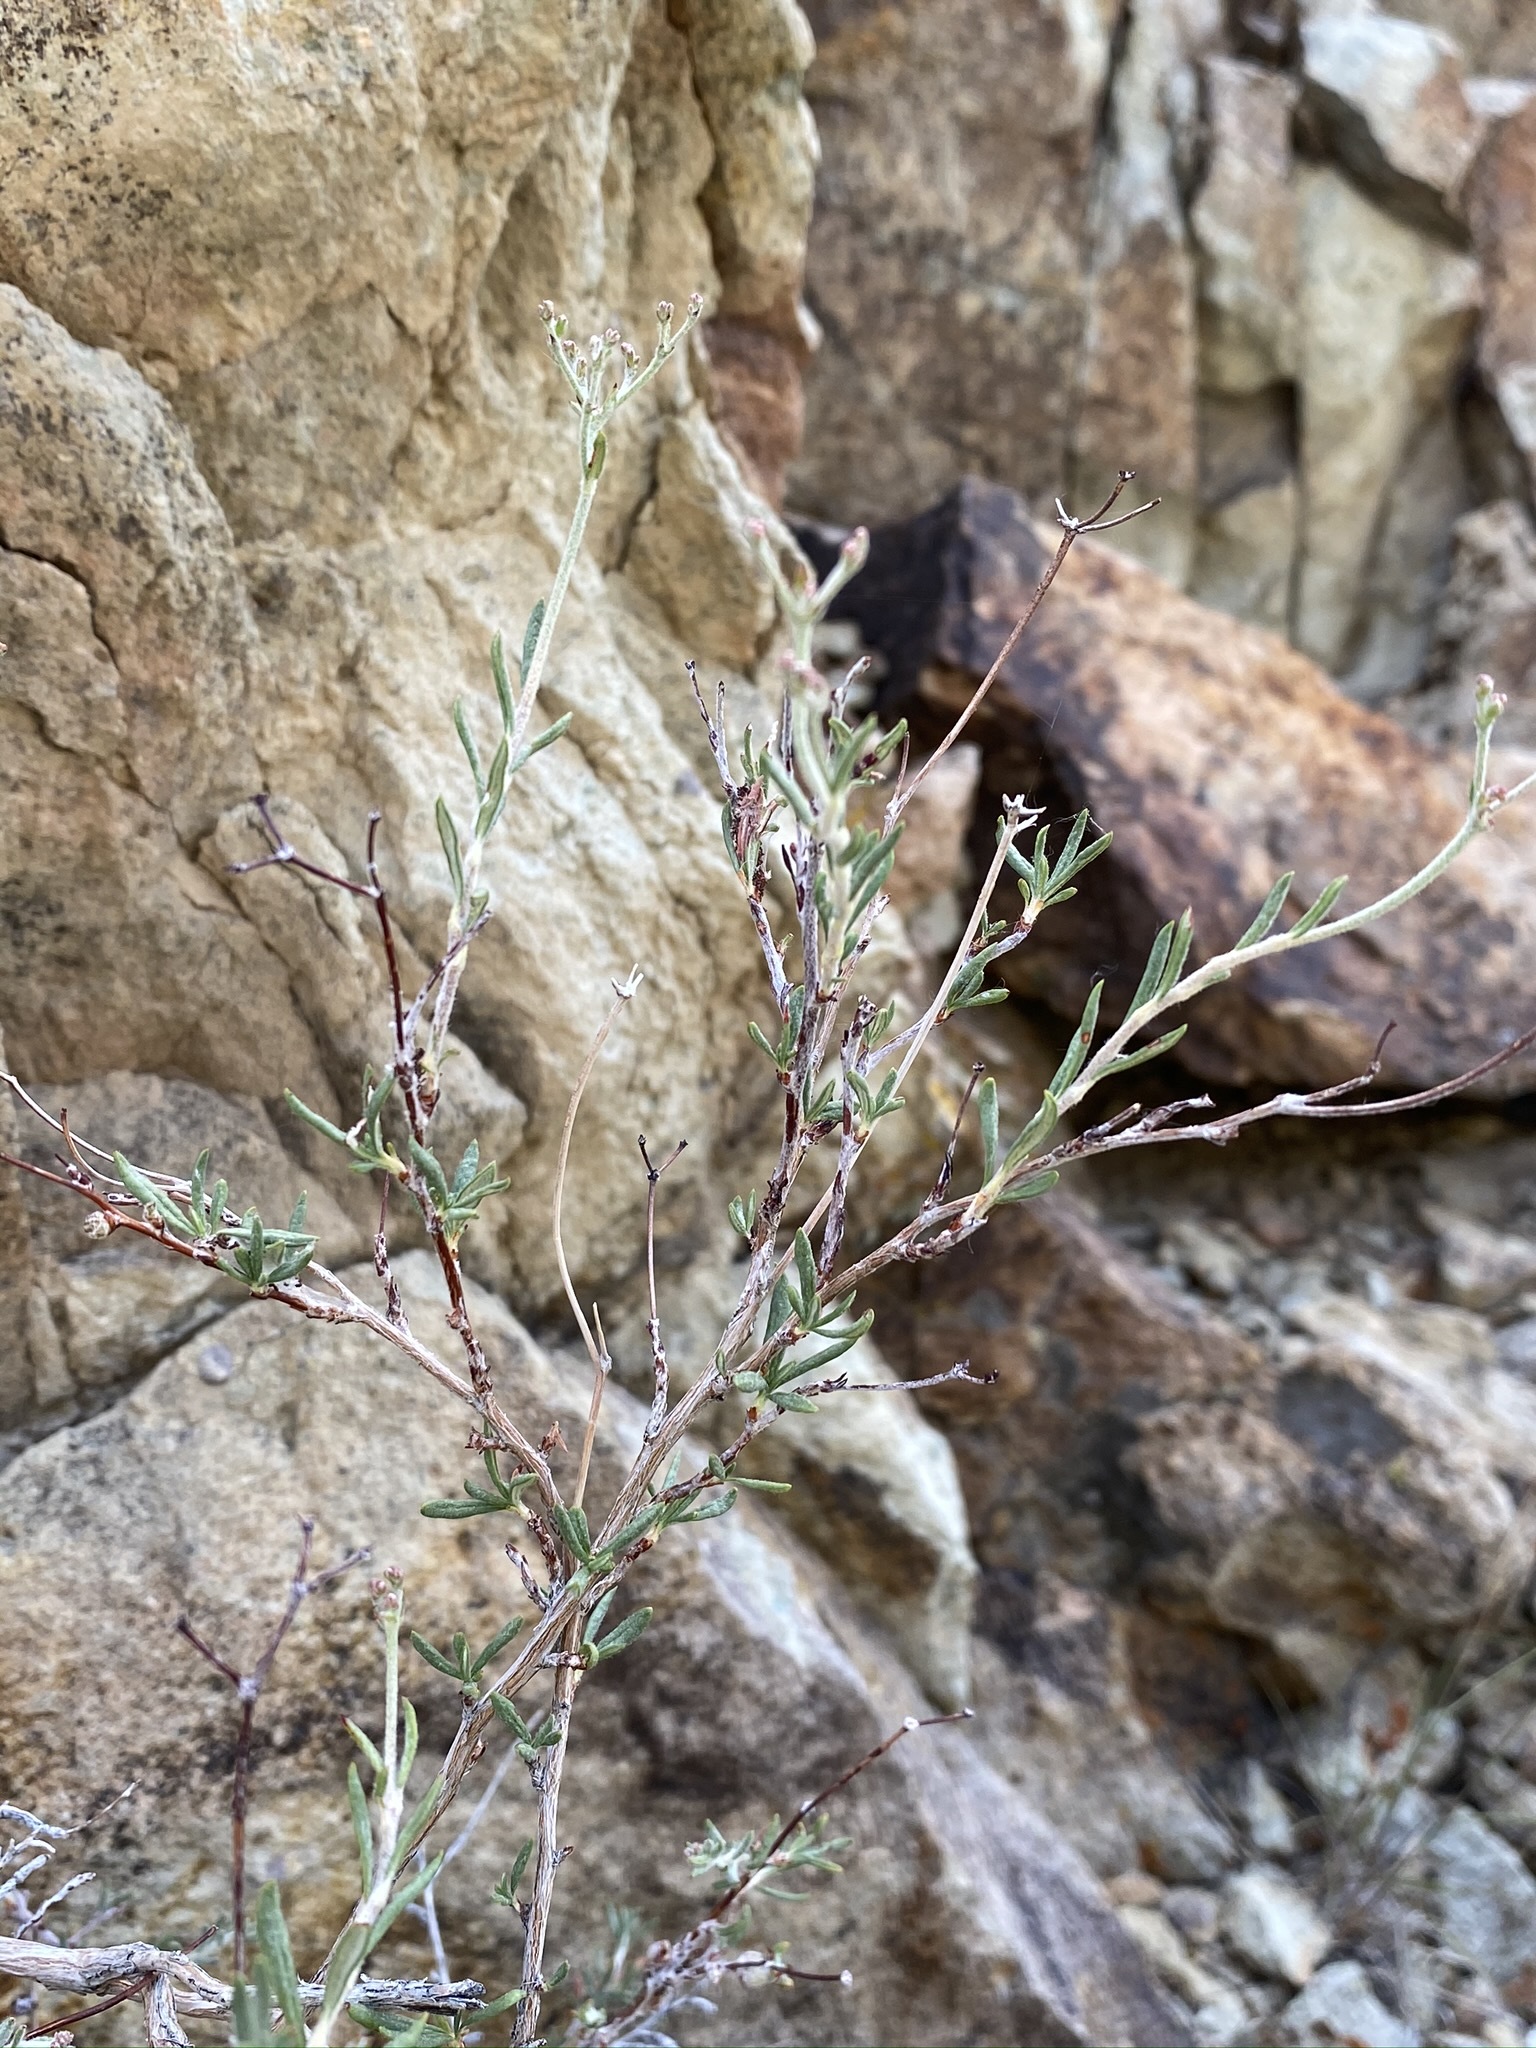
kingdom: Plantae
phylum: Tracheophyta
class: Magnoliopsida
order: Caryophyllales
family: Polygonaceae
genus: Eriogonum
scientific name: Eriogonum microtheca
